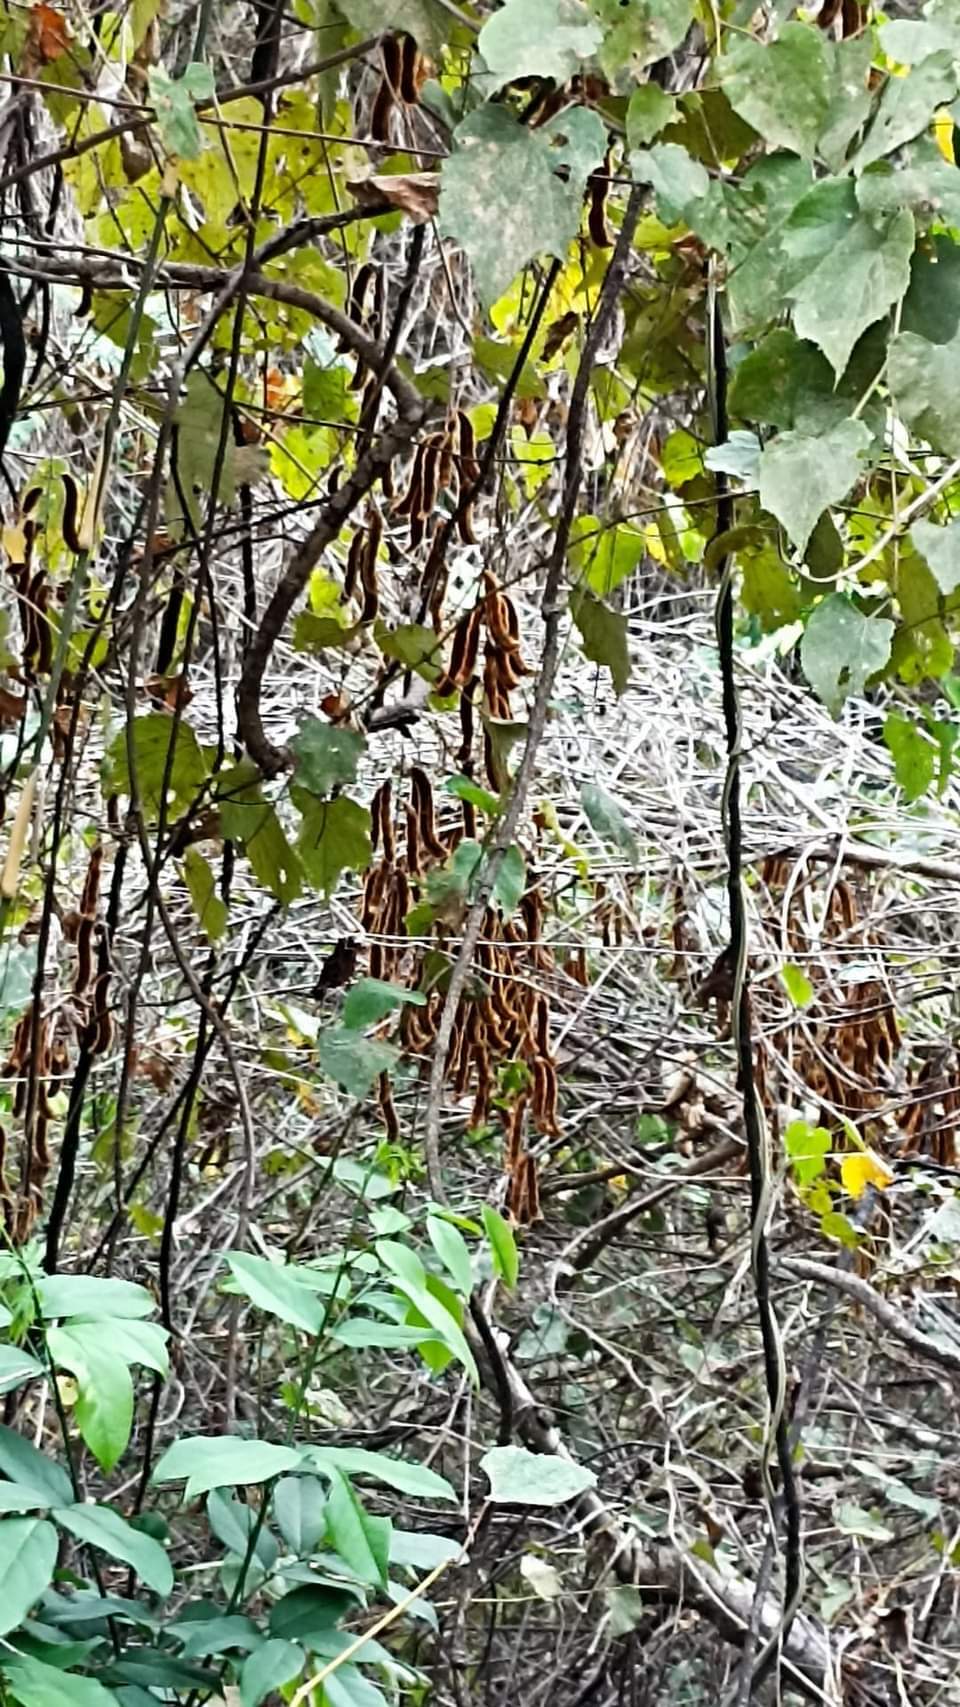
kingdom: Plantae
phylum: Tracheophyta
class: Magnoliopsida
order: Fabales
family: Fabaceae
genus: Mucuna
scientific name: Mucuna pruriens
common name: Cow-itch
